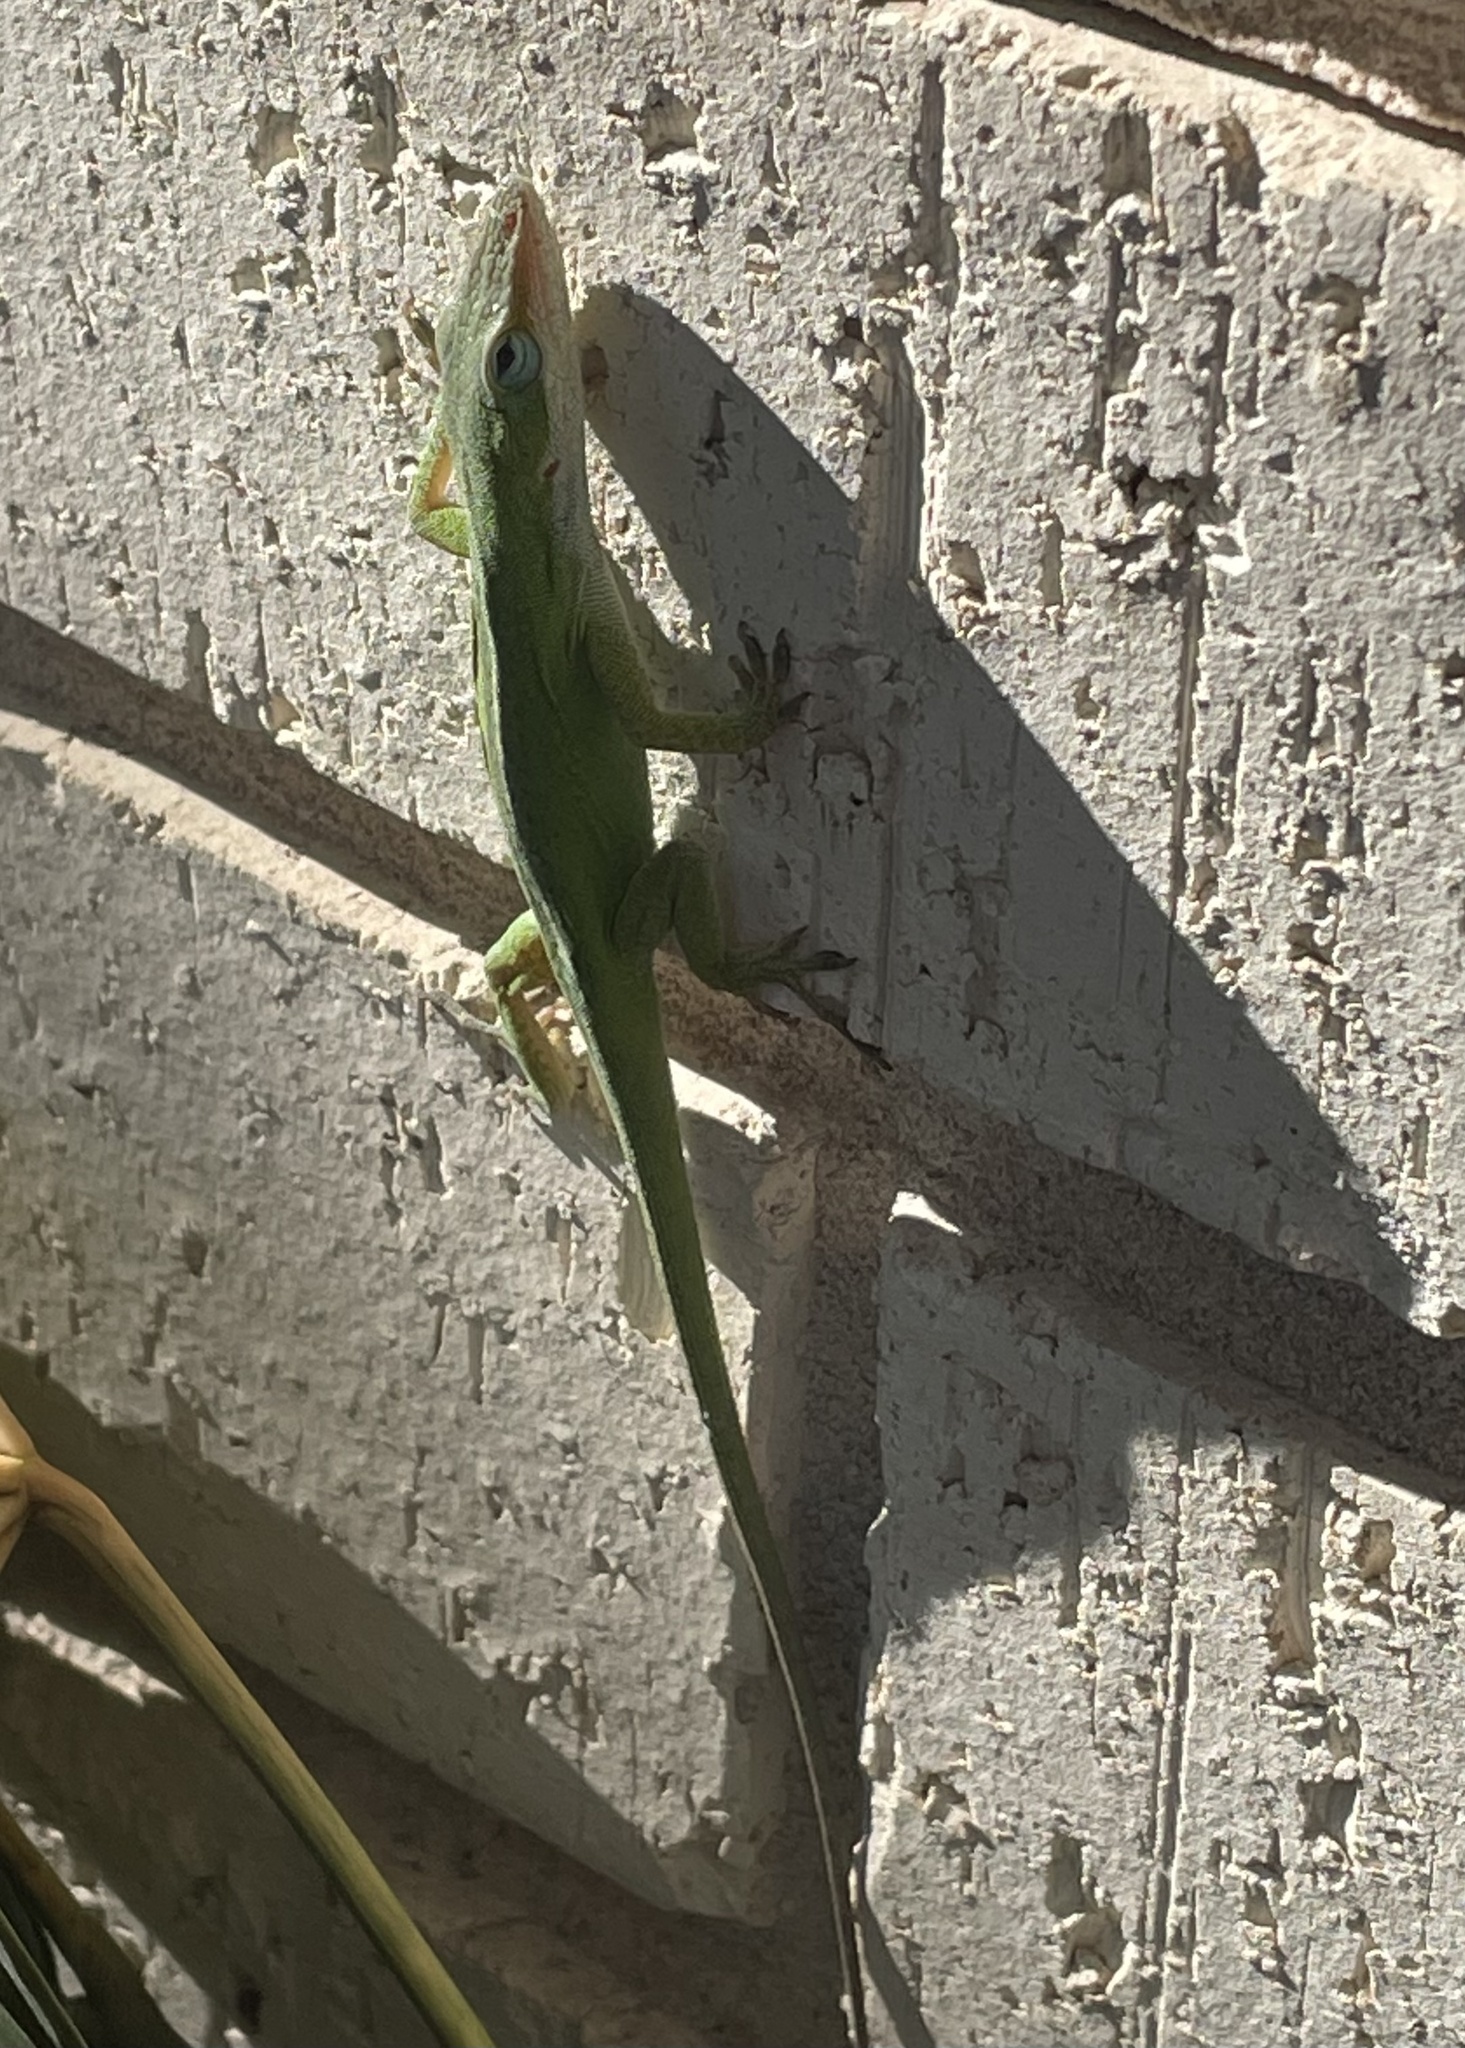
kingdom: Animalia
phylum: Chordata
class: Squamata
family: Dactyloidae
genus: Anolis
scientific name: Anolis carolinensis
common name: Green anole
